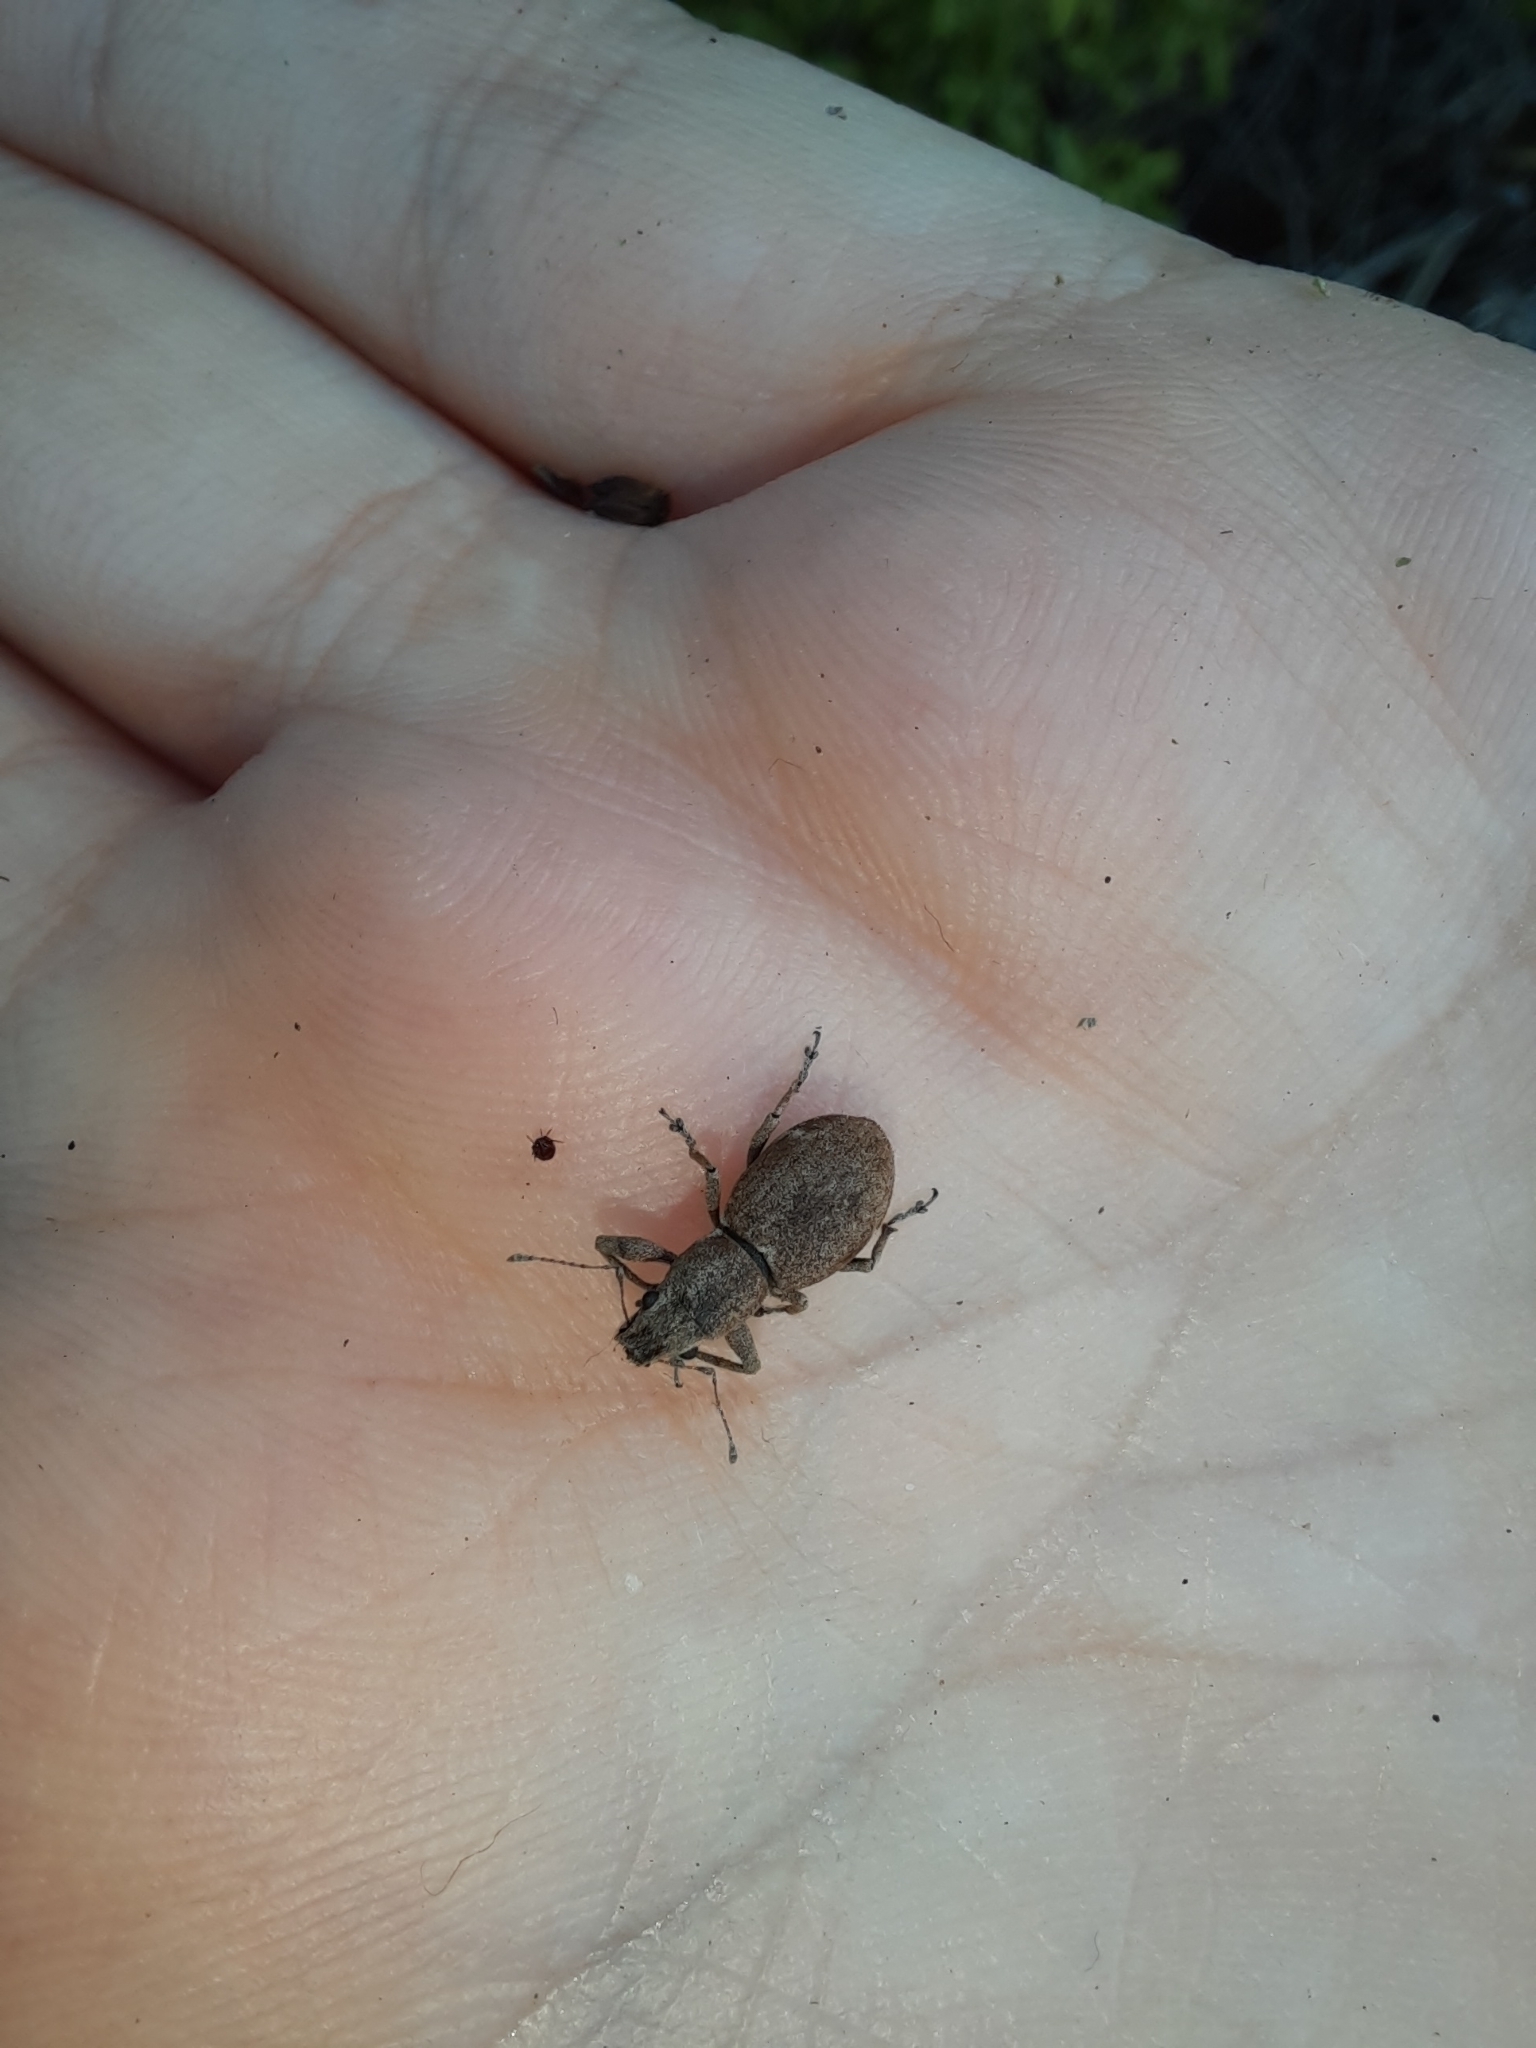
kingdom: Animalia
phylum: Arthropoda
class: Insecta
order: Coleoptera
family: Curculionidae
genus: Naupactus
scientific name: Naupactus cervinus
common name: Fuller rose beetle
